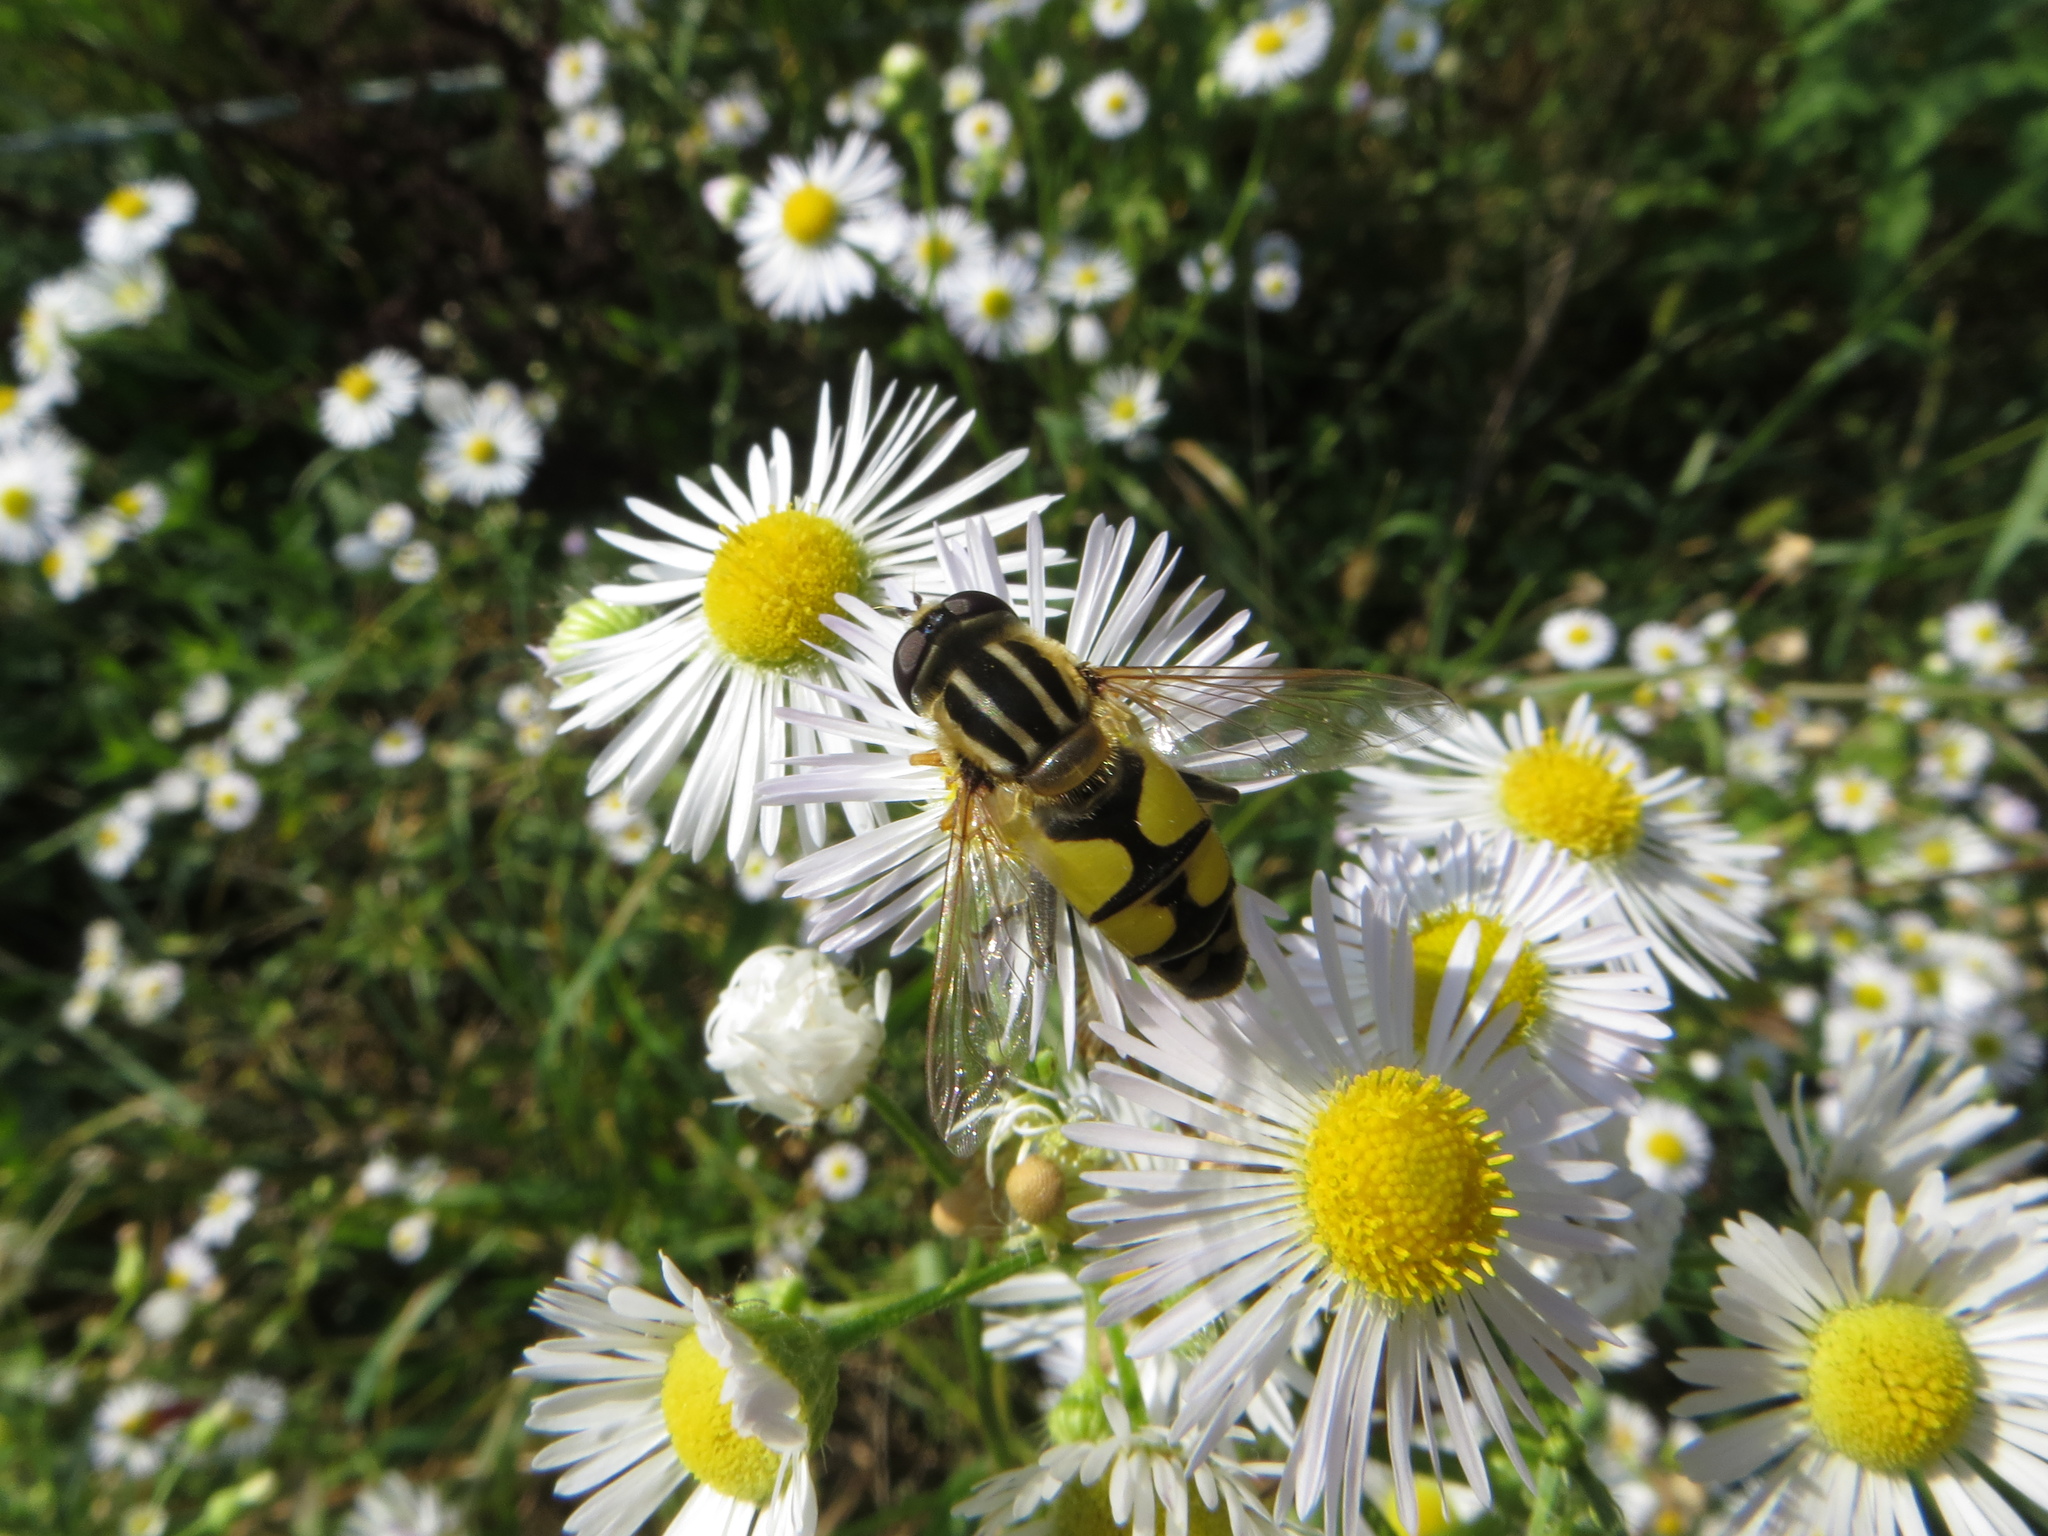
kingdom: Animalia
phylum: Arthropoda
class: Insecta
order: Diptera
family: Syrphidae
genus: Helophilus
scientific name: Helophilus trivittatus
